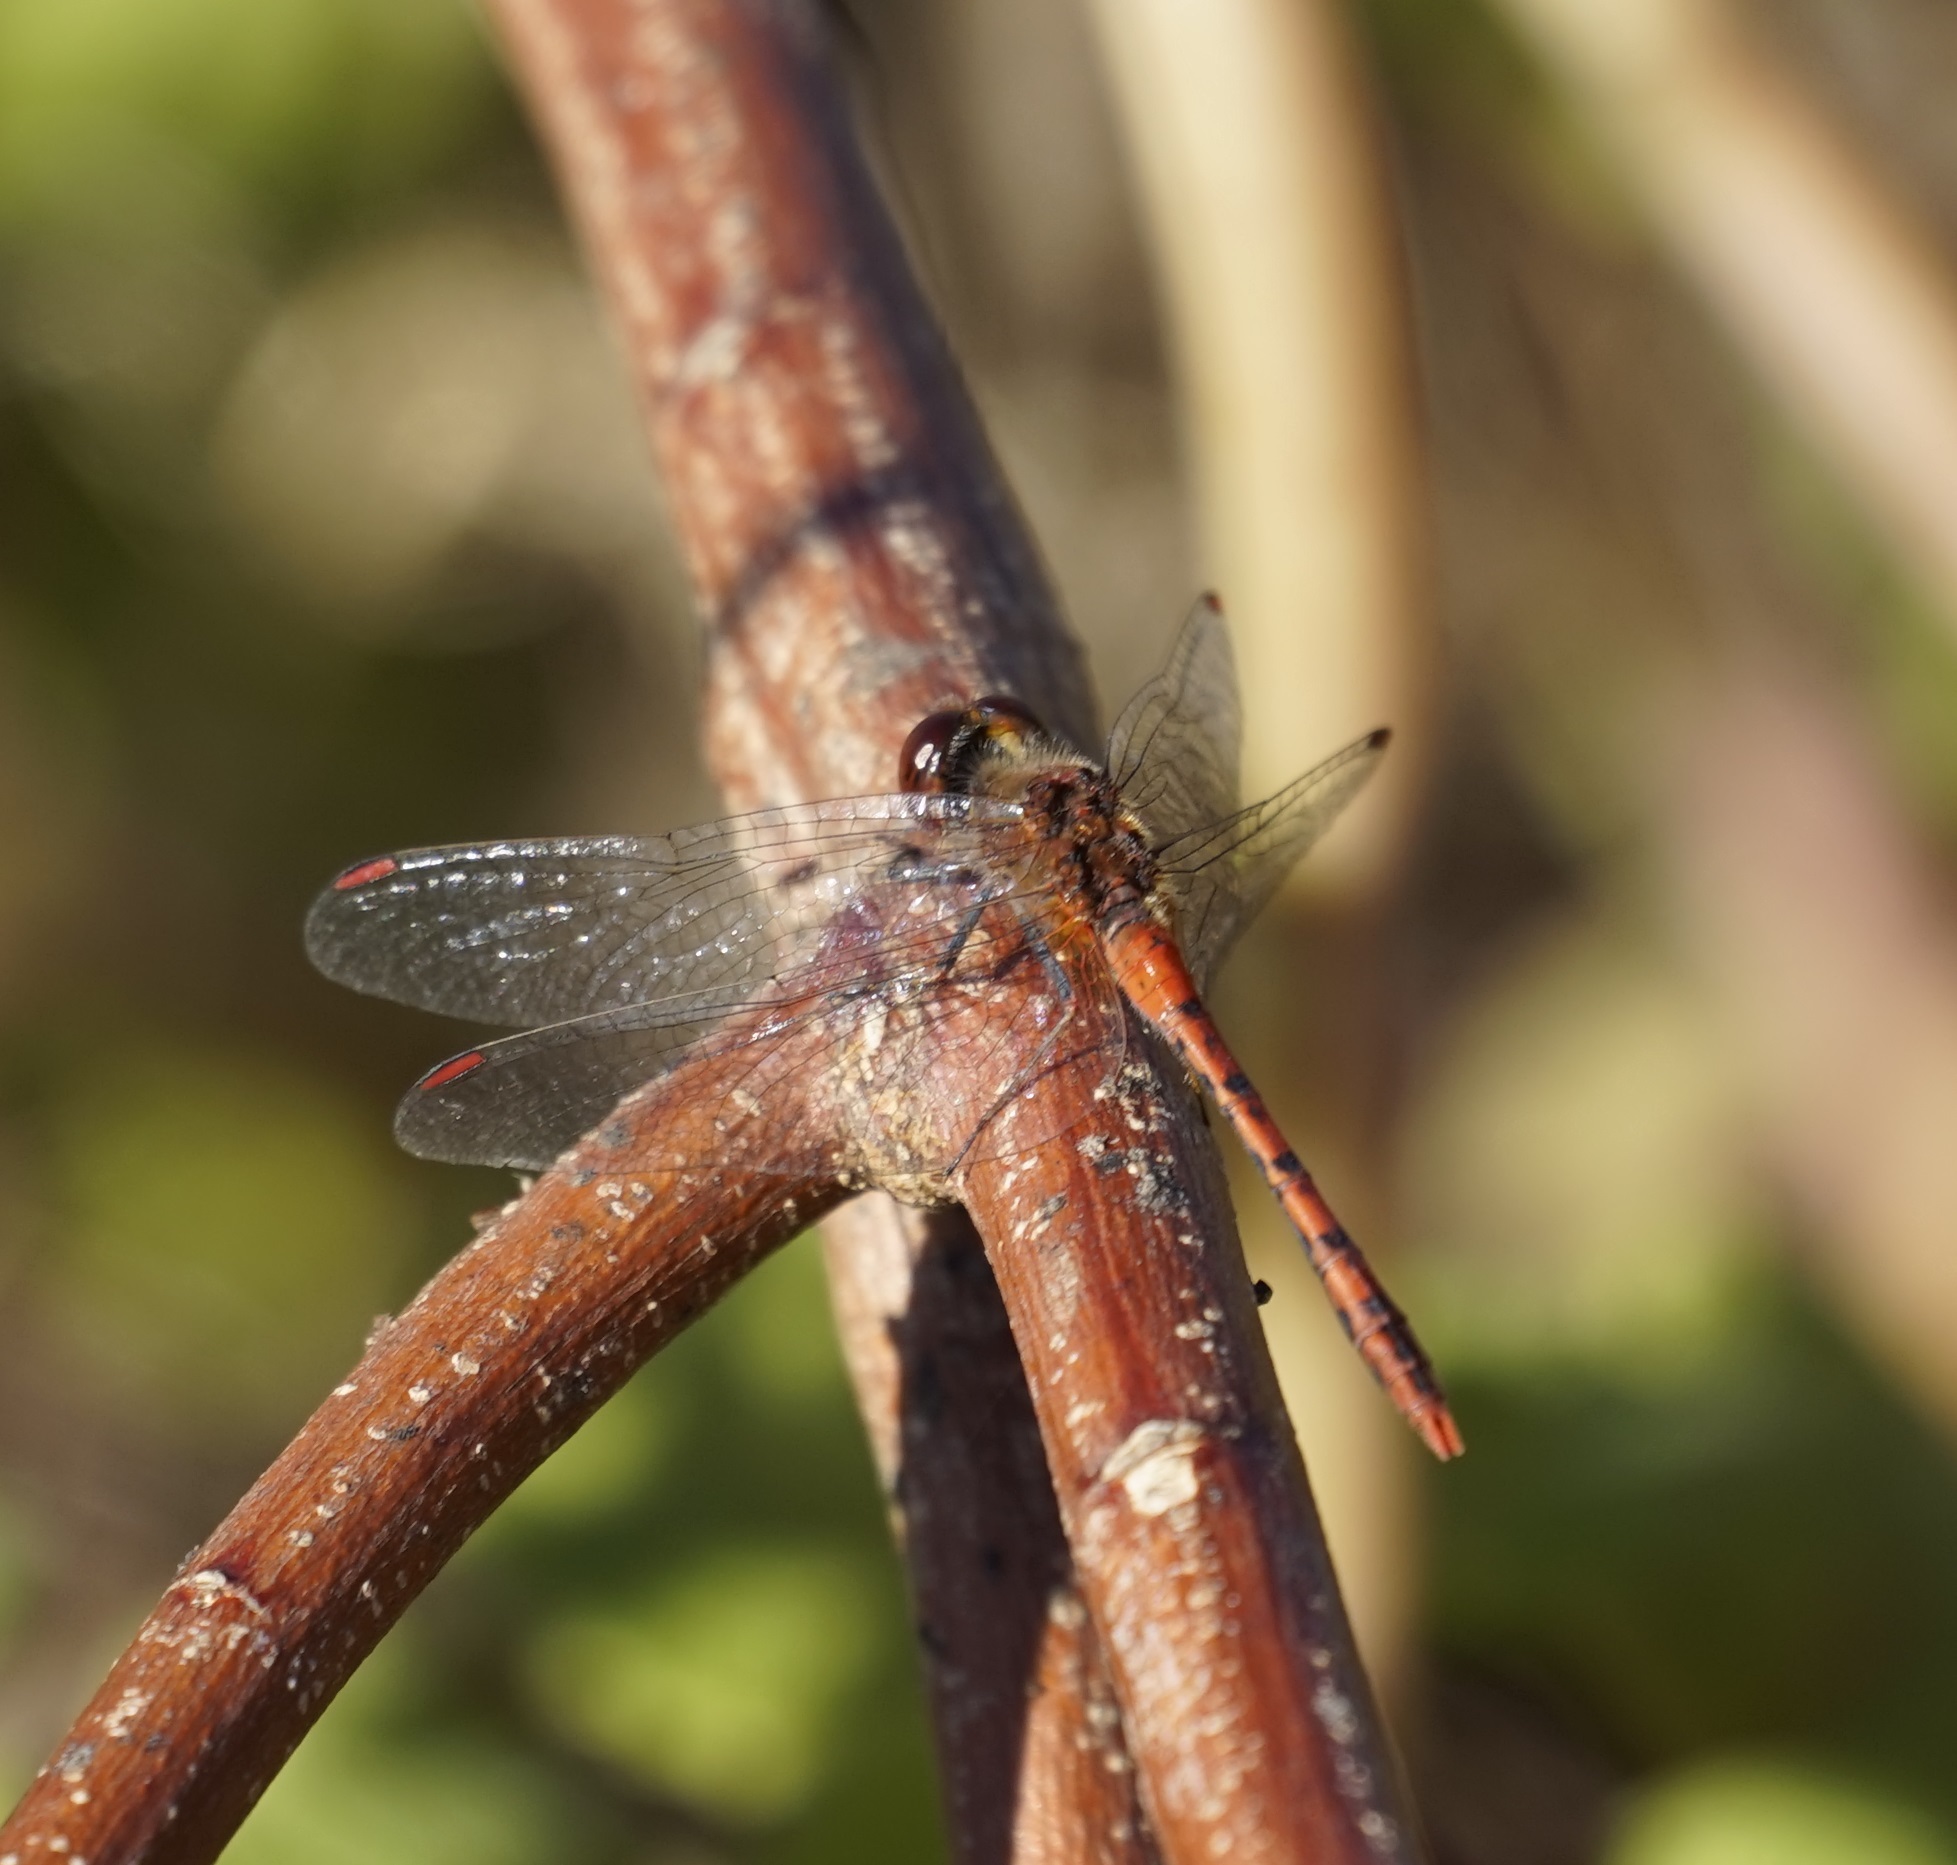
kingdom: Animalia
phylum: Arthropoda
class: Insecta
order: Odonata
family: Libellulidae
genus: Diplacodes
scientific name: Diplacodes bipunctata
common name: Red percher dragonfly
